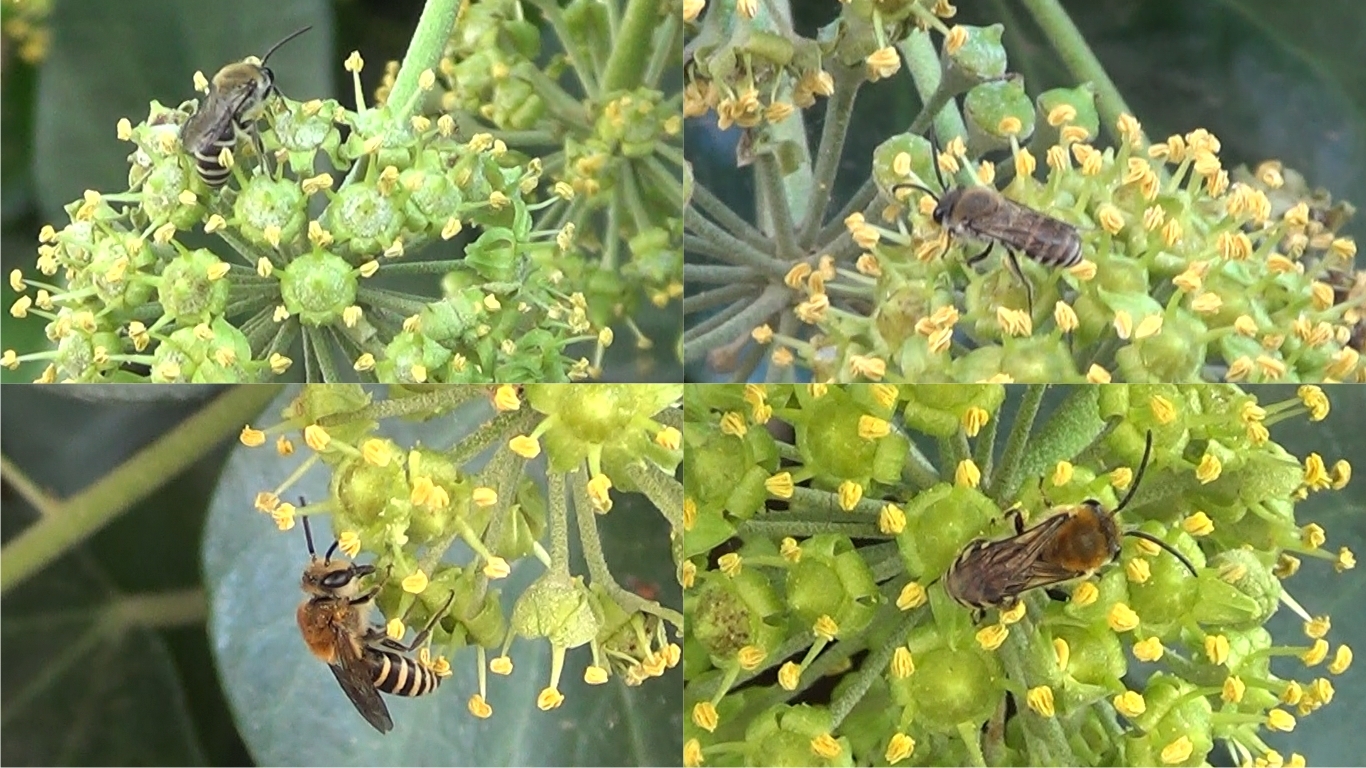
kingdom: Animalia
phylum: Arthropoda
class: Insecta
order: Hymenoptera
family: Colletidae
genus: Colletes
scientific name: Colletes hederae
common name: Ivy bee
